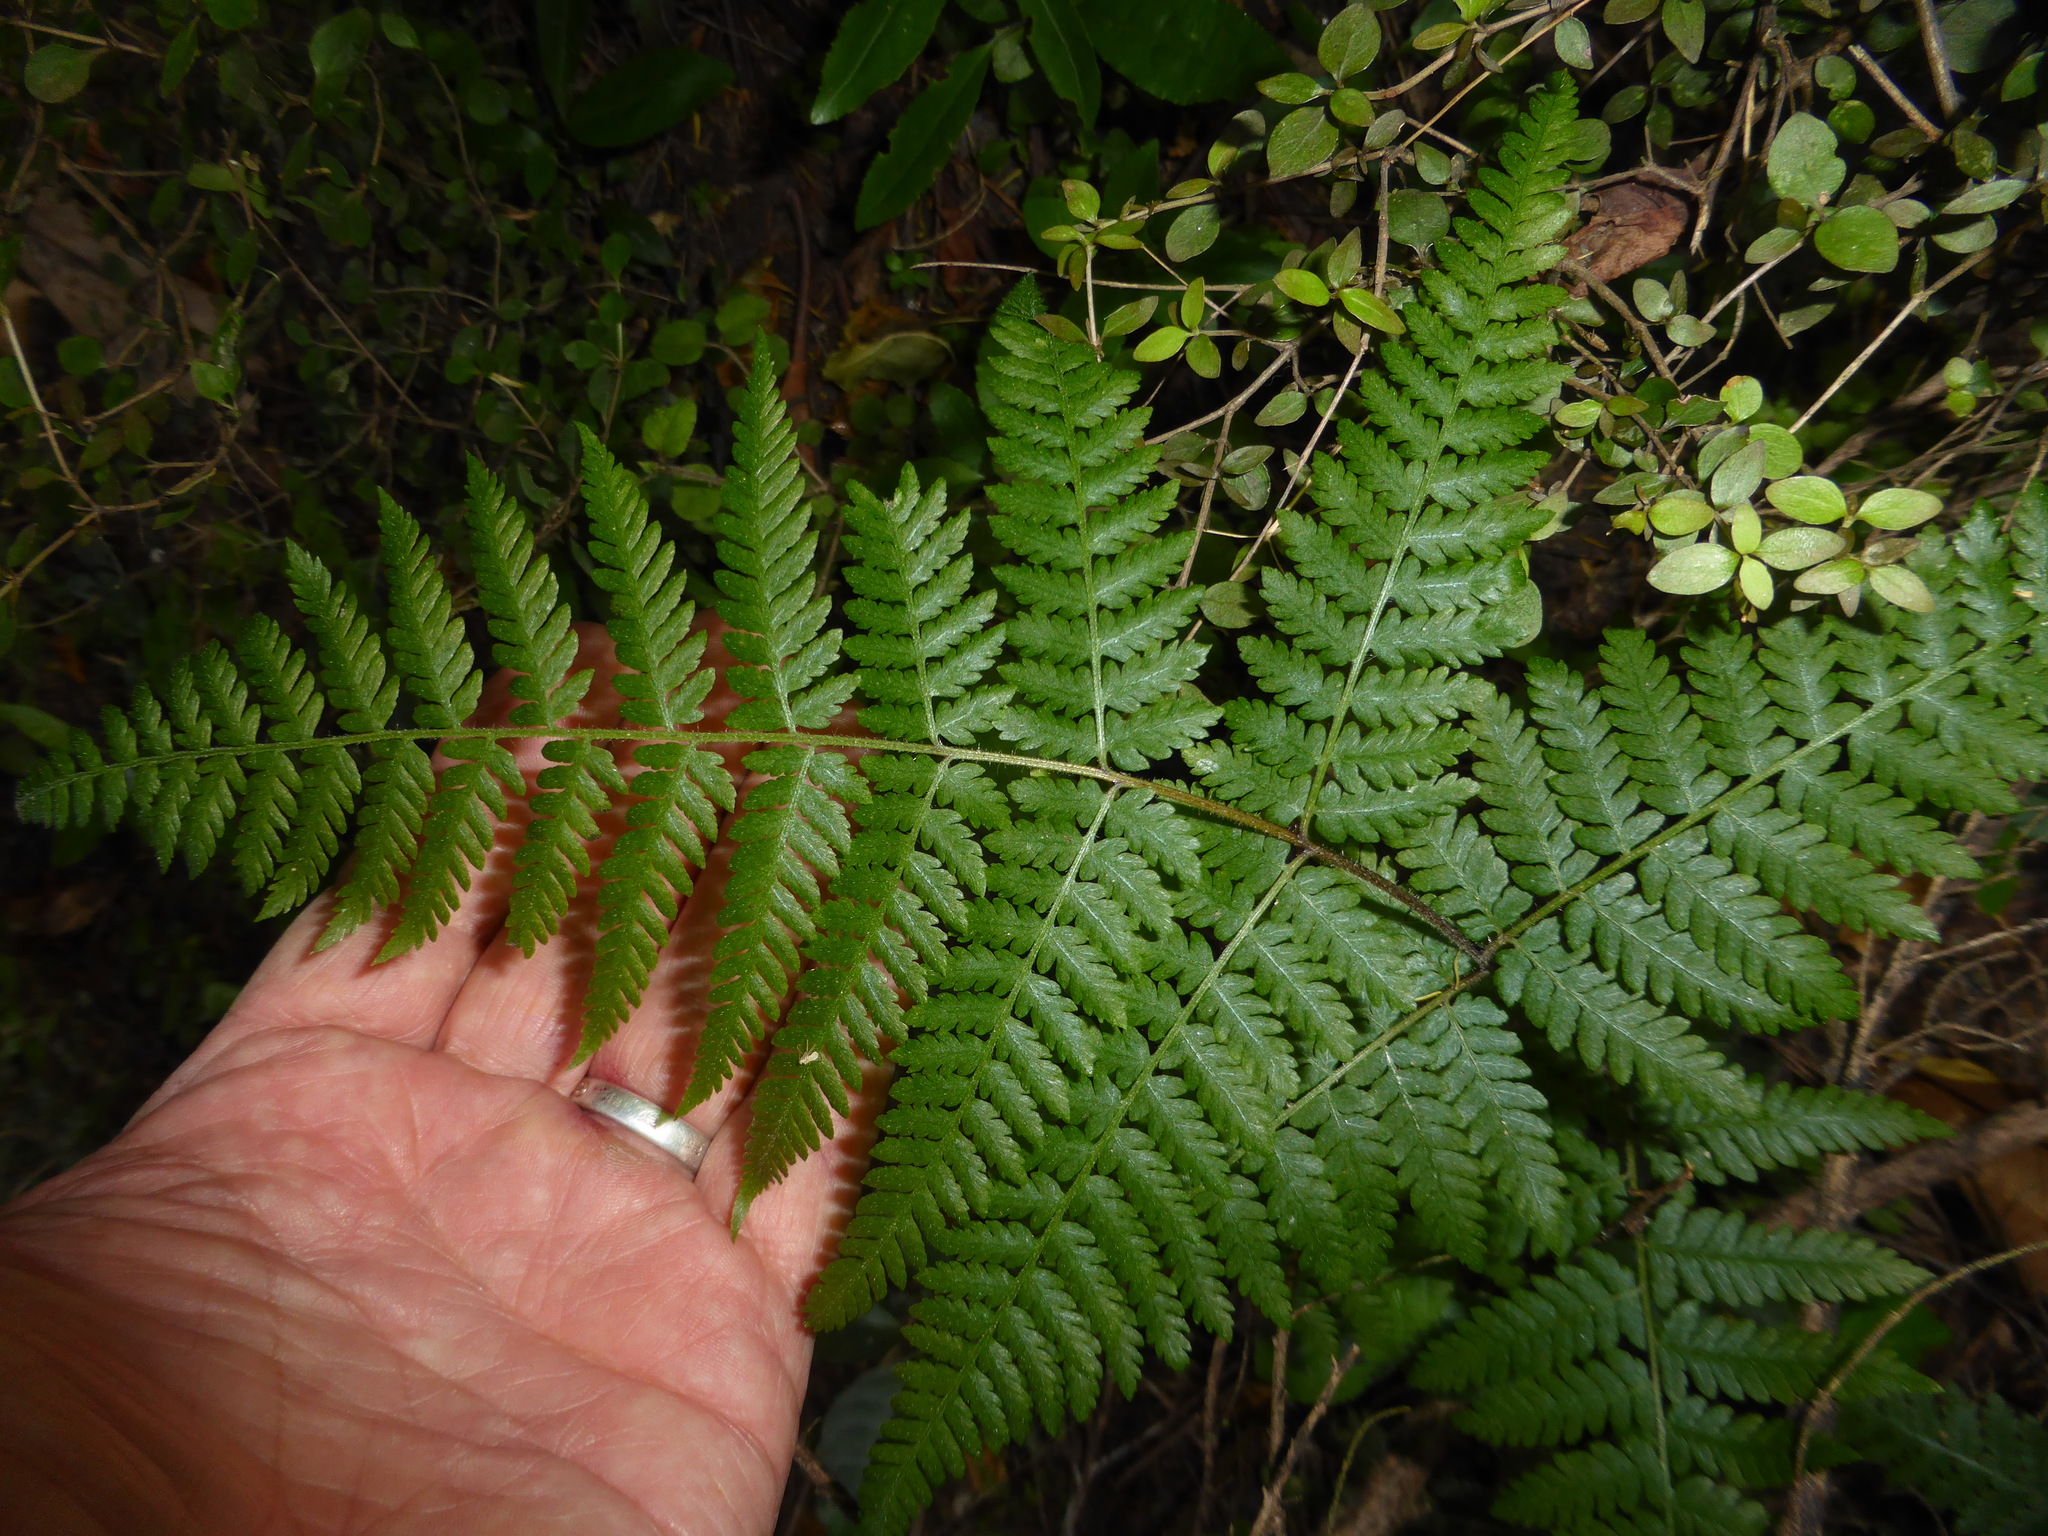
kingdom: Plantae
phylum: Tracheophyta
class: Polypodiopsida
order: Polypodiales
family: Dennstaedtiaceae
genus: Hypolepis
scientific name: Hypolepis ambigua
